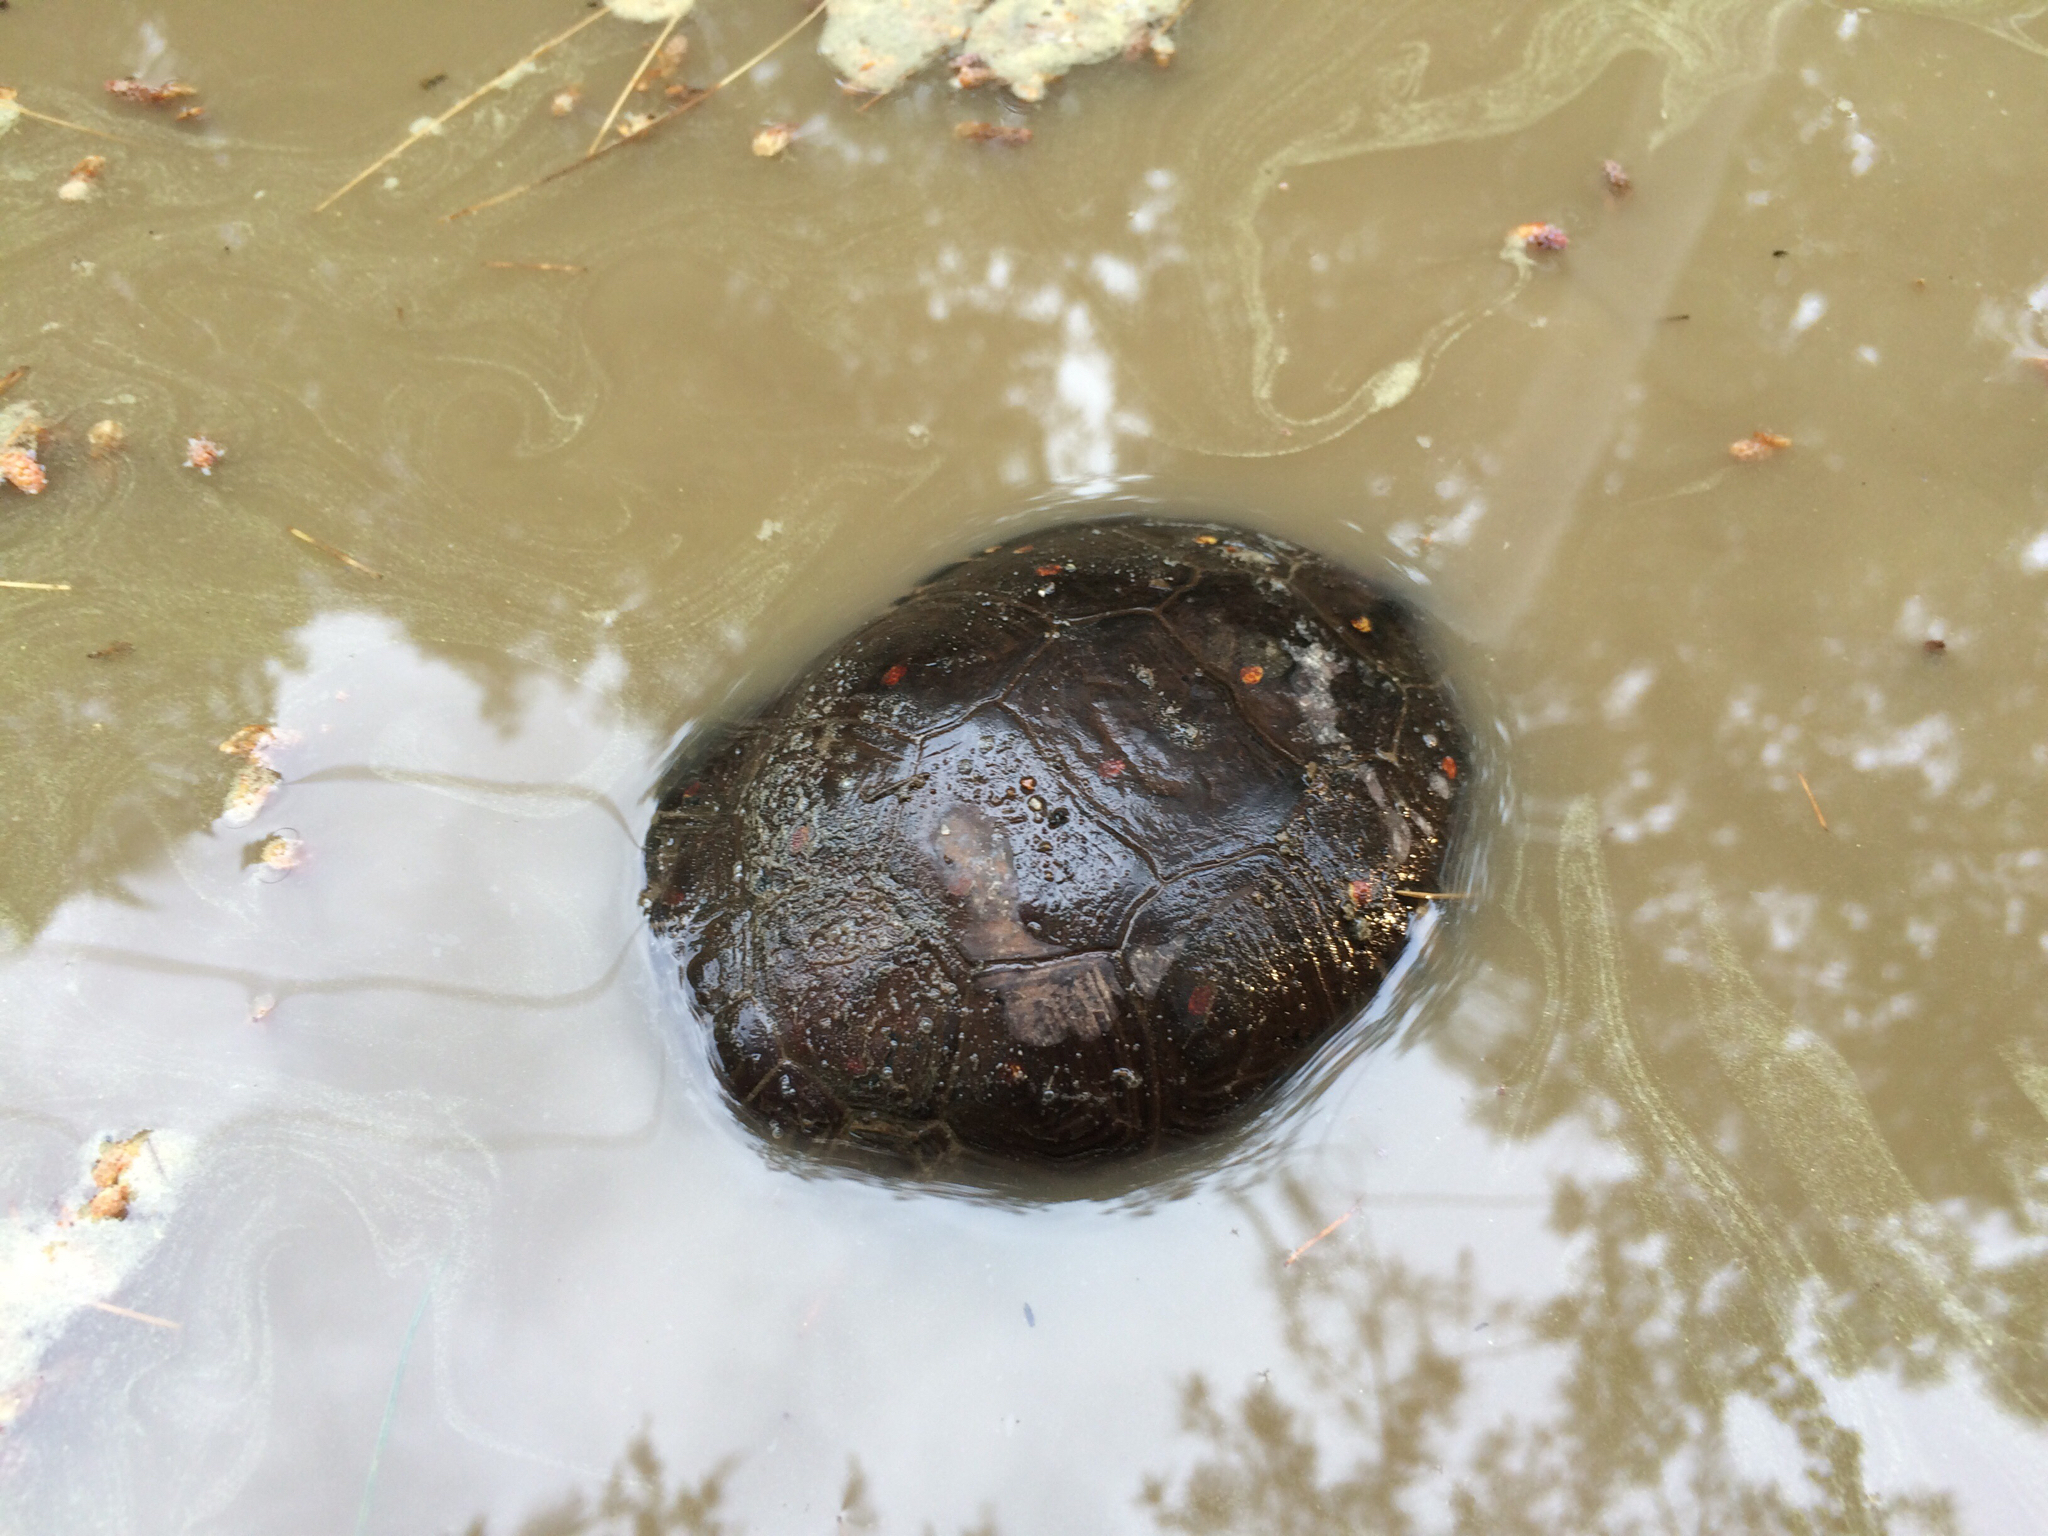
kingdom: Animalia
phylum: Chordata
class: Testudines
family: Emydidae
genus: Clemmys
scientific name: Clemmys guttata
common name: Spotted turtle
